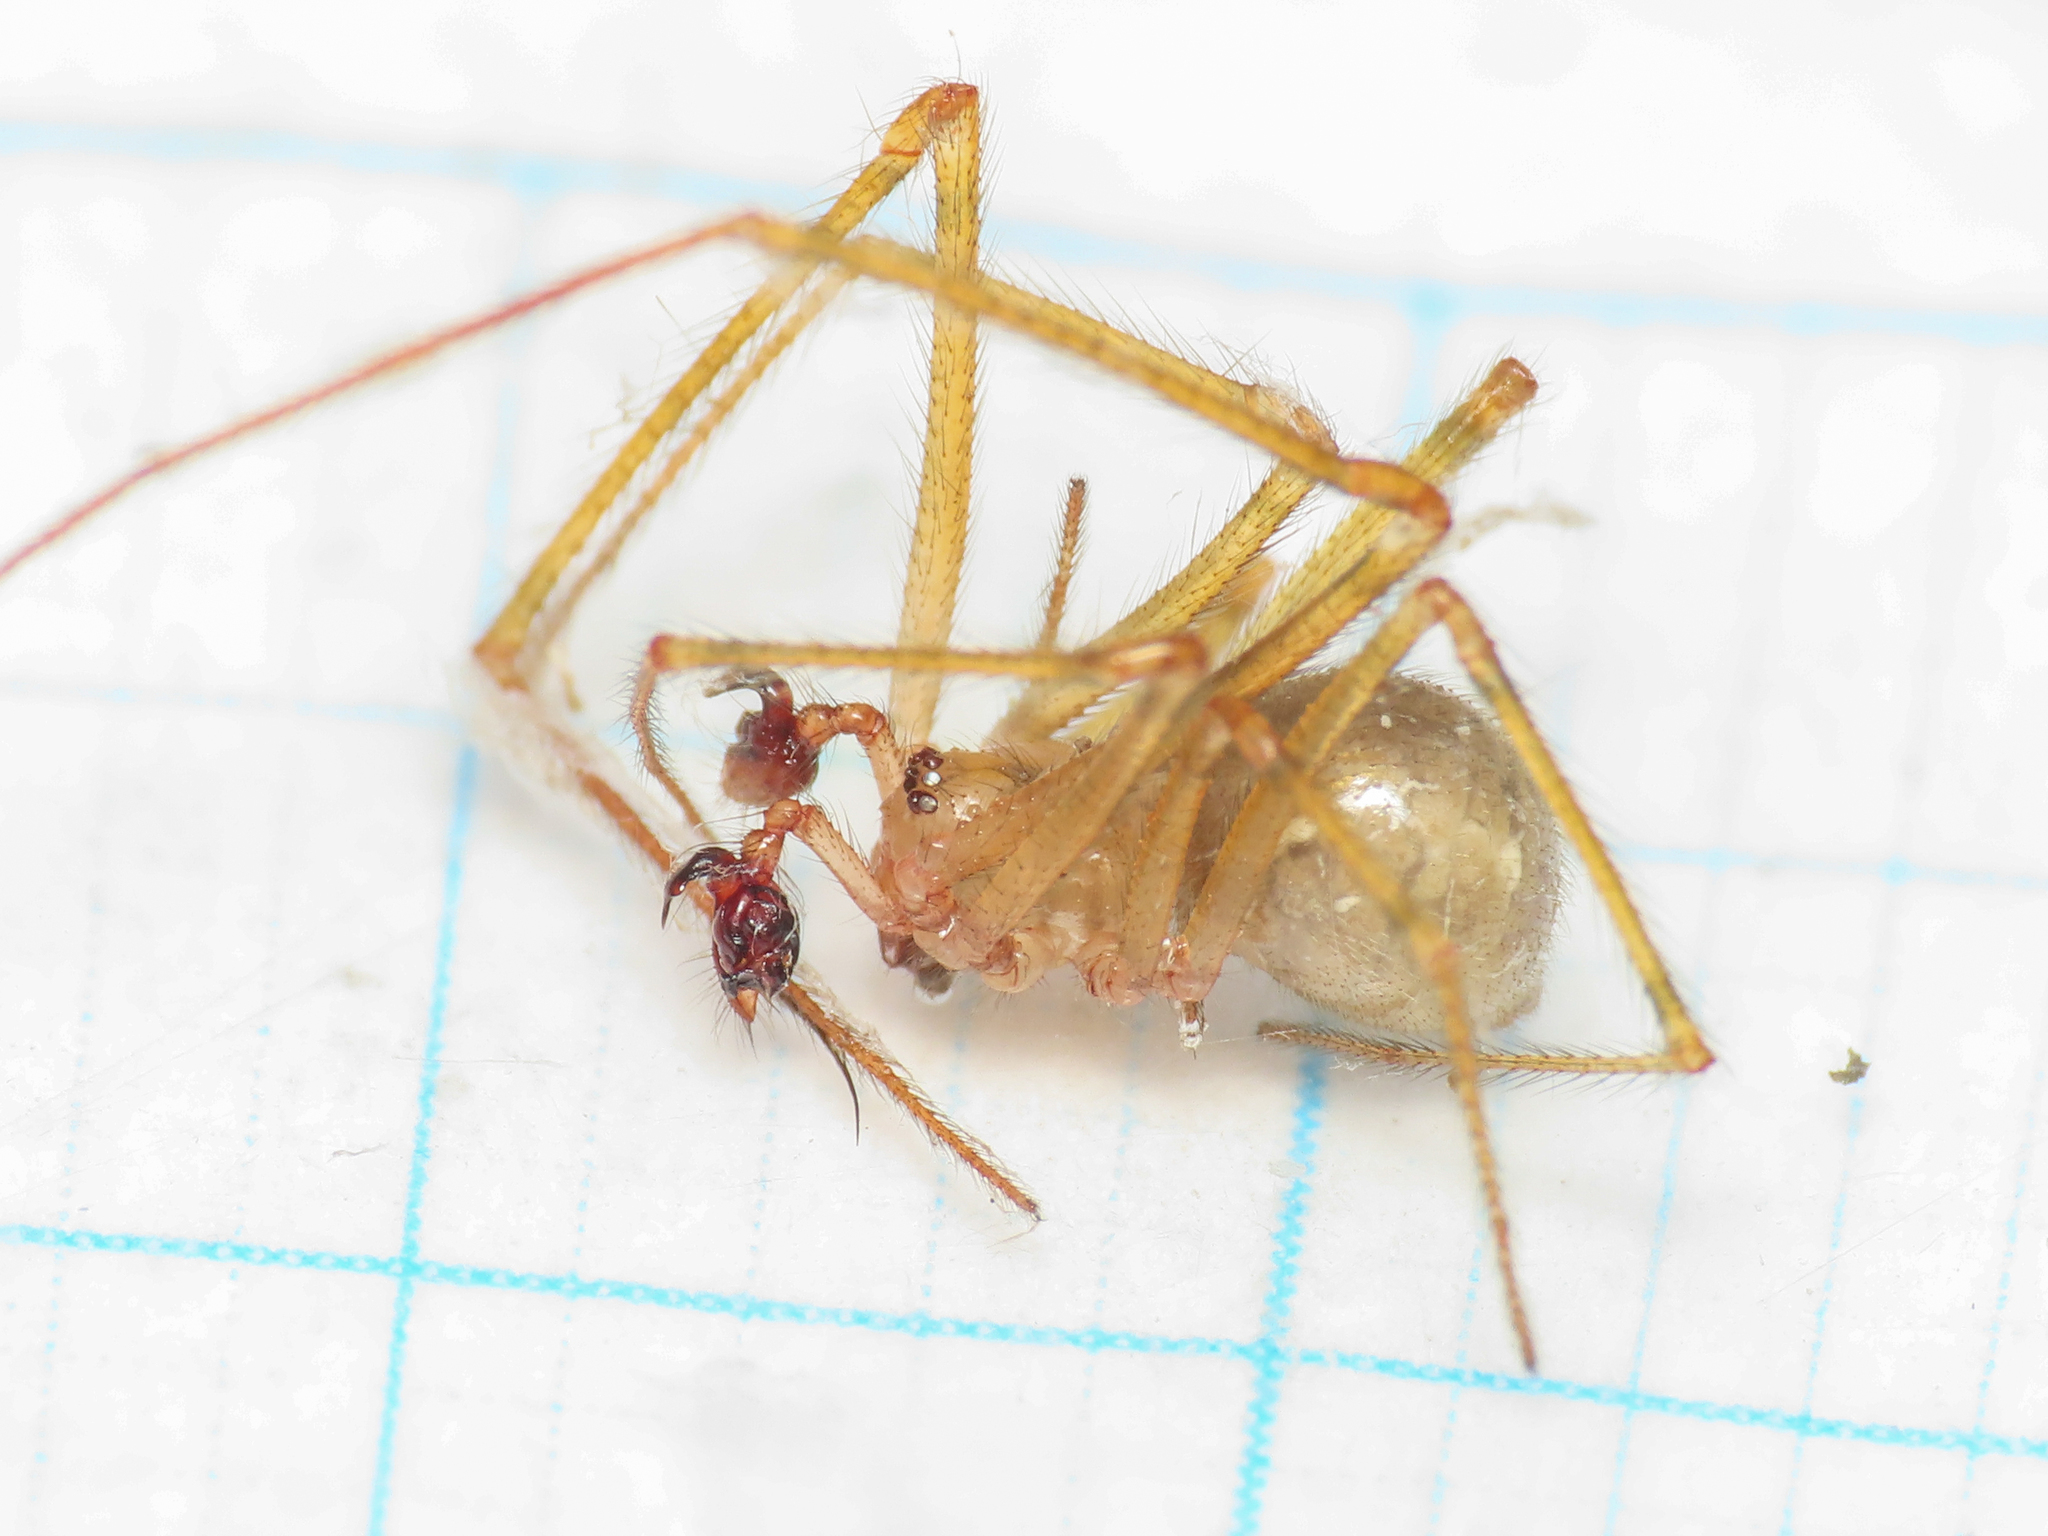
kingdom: Animalia
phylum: Arthropoda
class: Arachnida
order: Araneae
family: Nesticidae
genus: Kryptonesticus
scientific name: Kryptonesticus eremita
